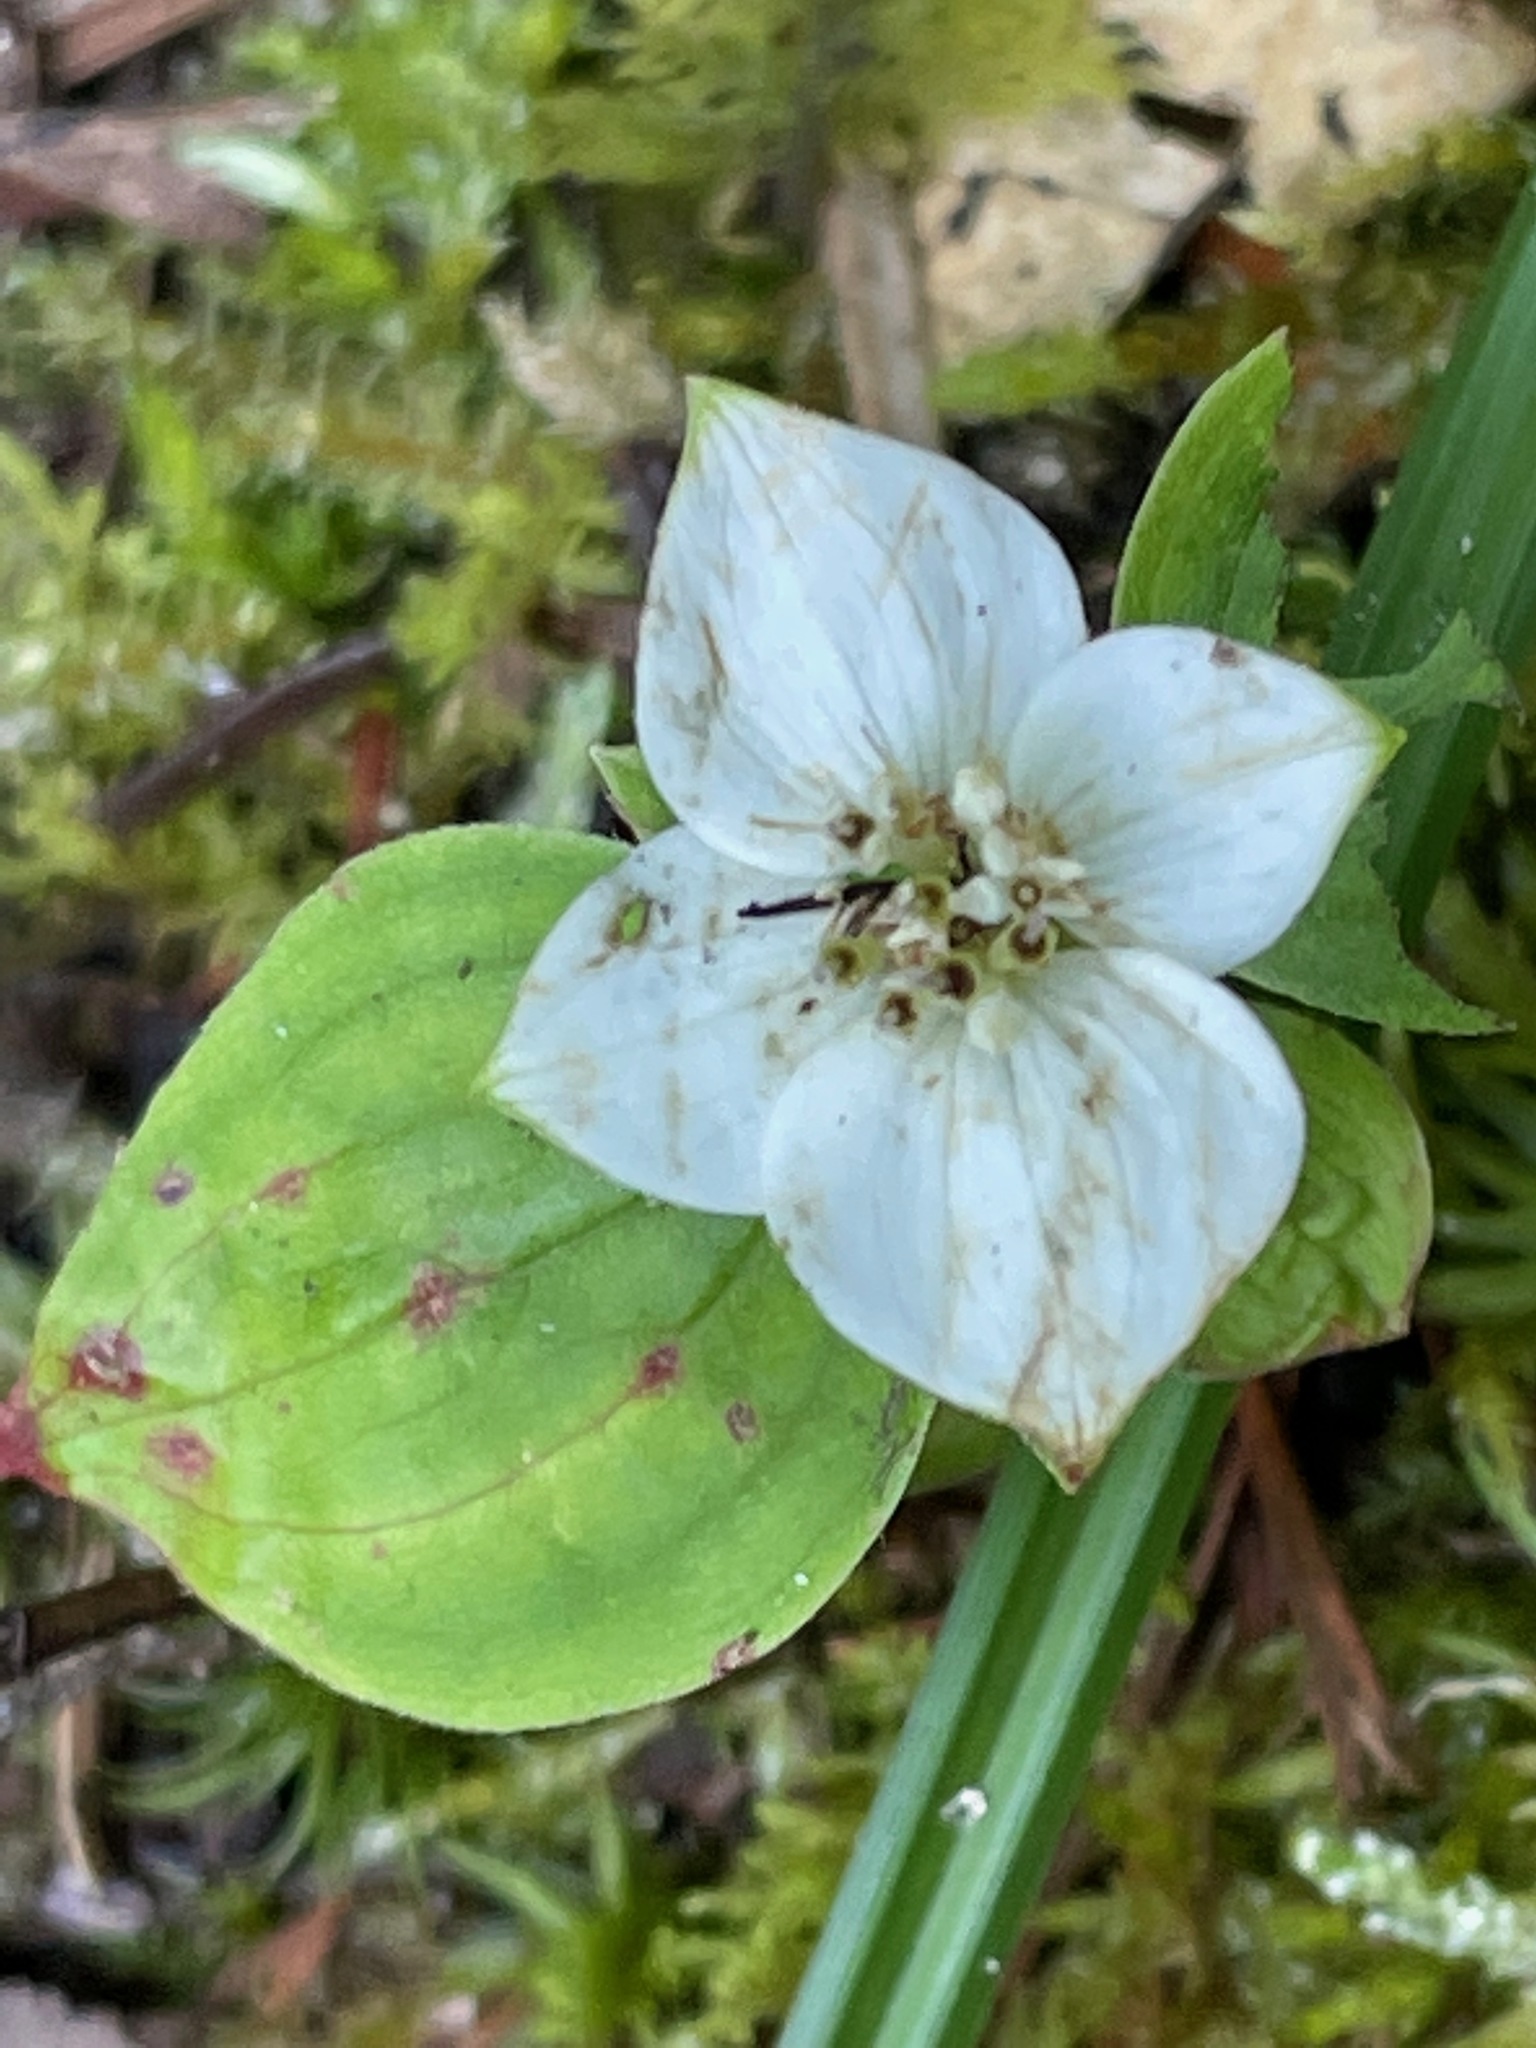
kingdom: Plantae
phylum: Tracheophyta
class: Magnoliopsida
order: Cornales
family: Cornaceae
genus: Cornus
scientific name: Cornus canadensis
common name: Creeping dogwood
